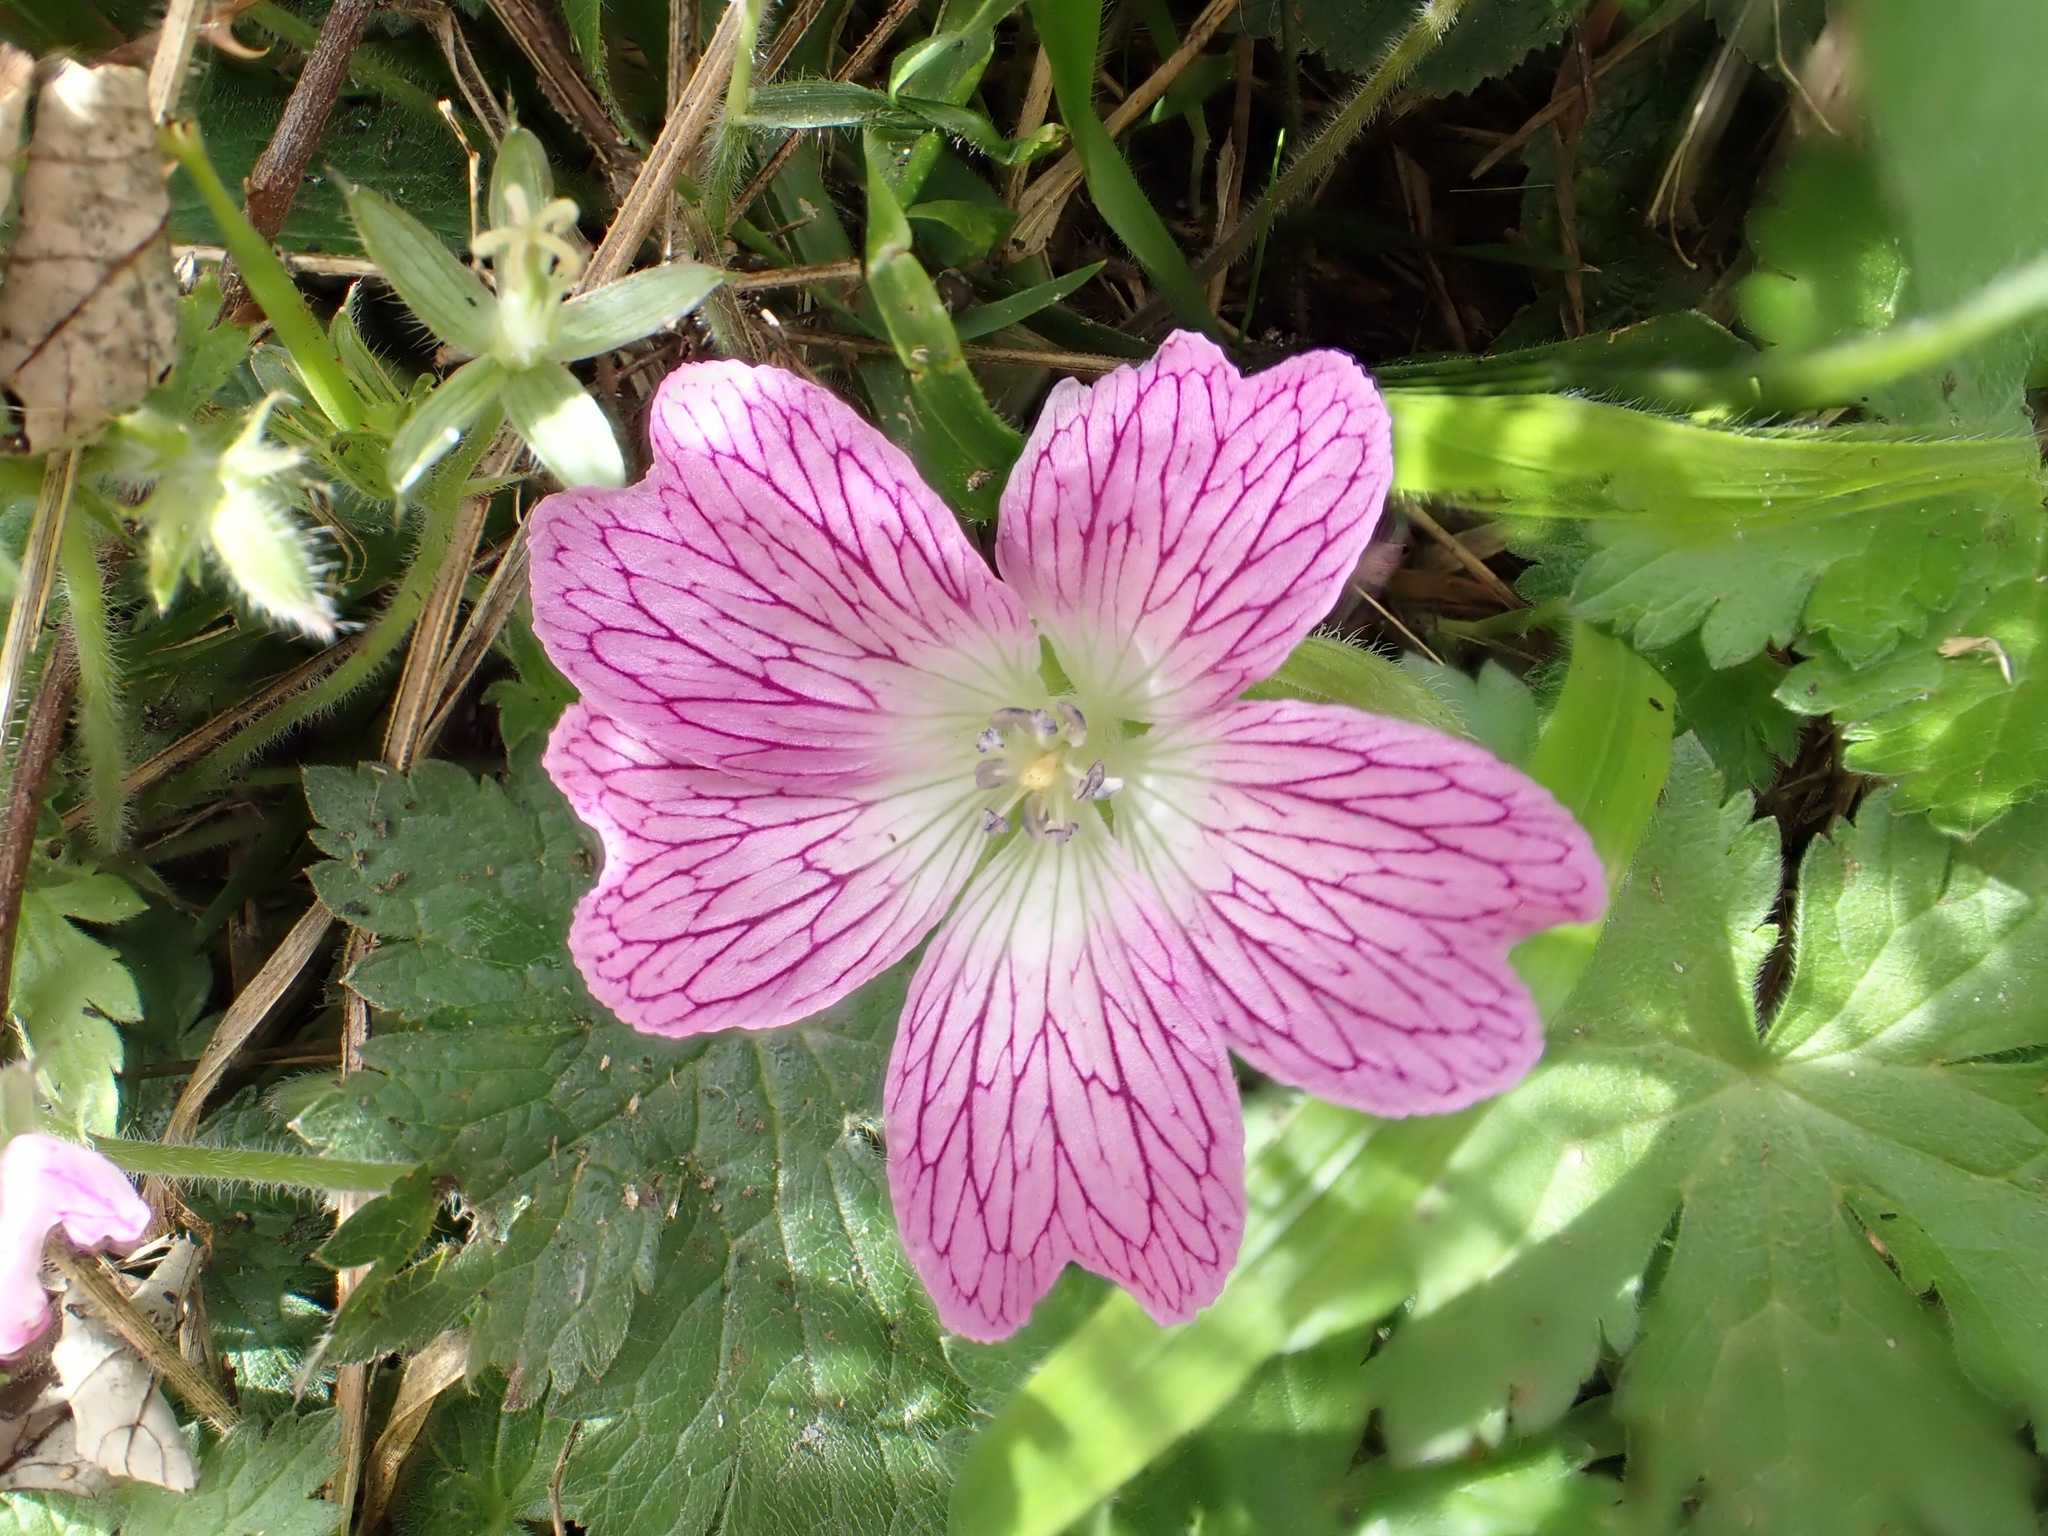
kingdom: Plantae
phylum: Tracheophyta
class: Magnoliopsida
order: Geraniales
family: Geraniaceae
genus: Geranium
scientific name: Geranium oxonianum
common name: Druce's crane's-bill
